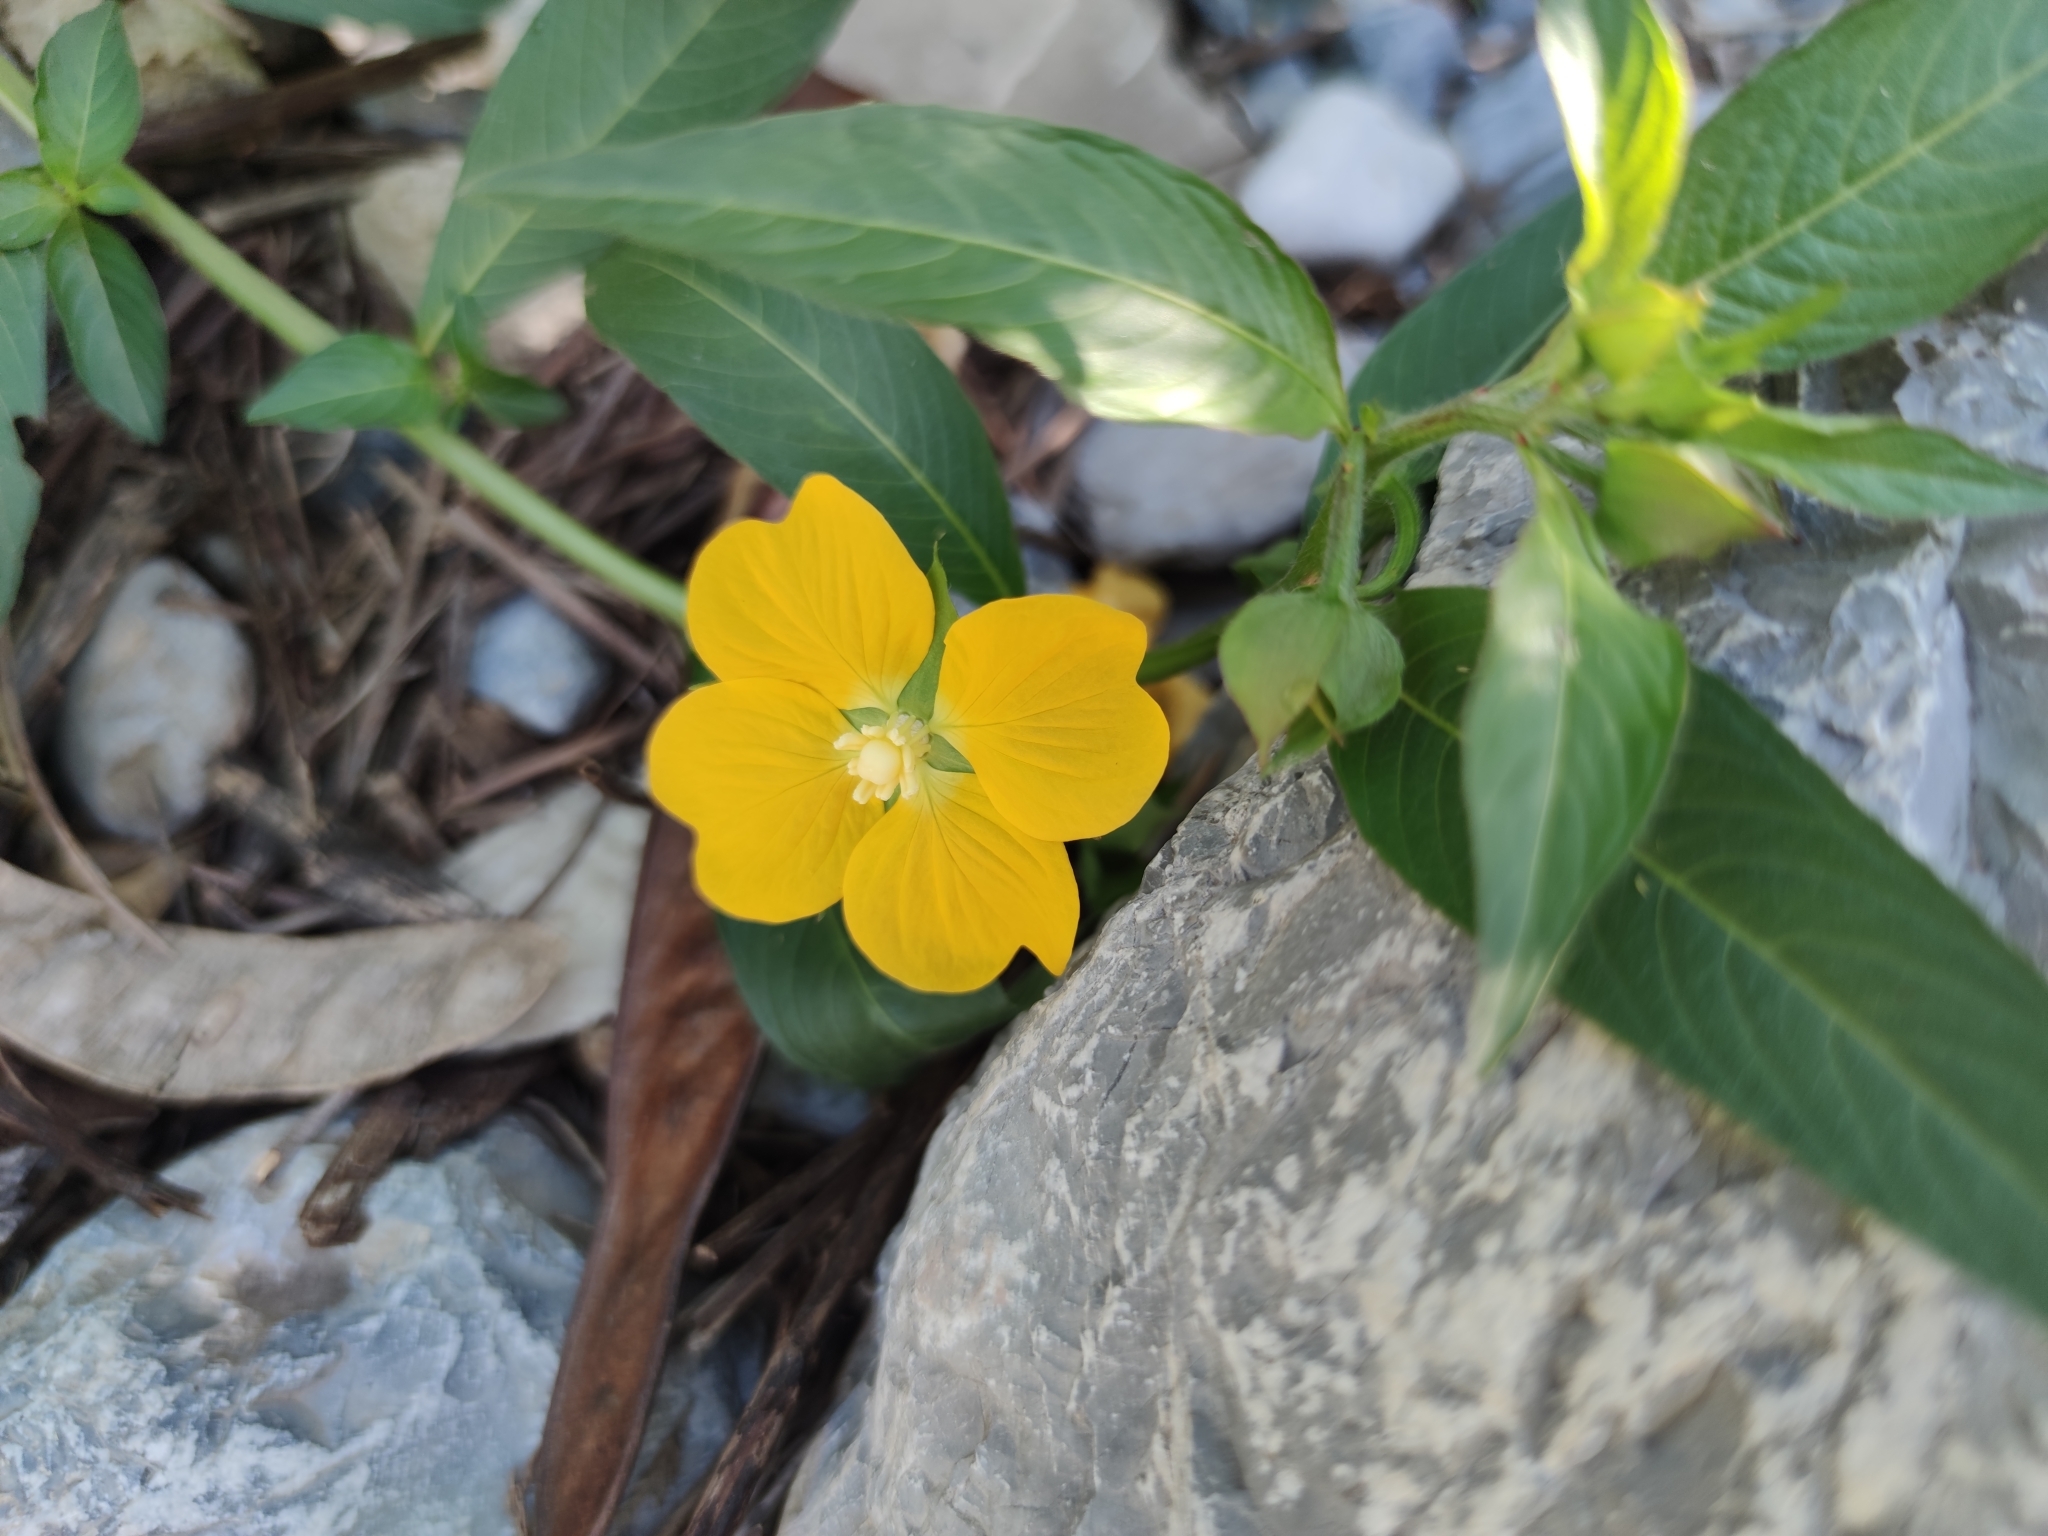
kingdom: Plantae
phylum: Tracheophyta
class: Magnoliopsida
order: Myrtales
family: Onagraceae
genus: Ludwigia
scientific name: Ludwigia octovalvis
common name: Water-primrose
